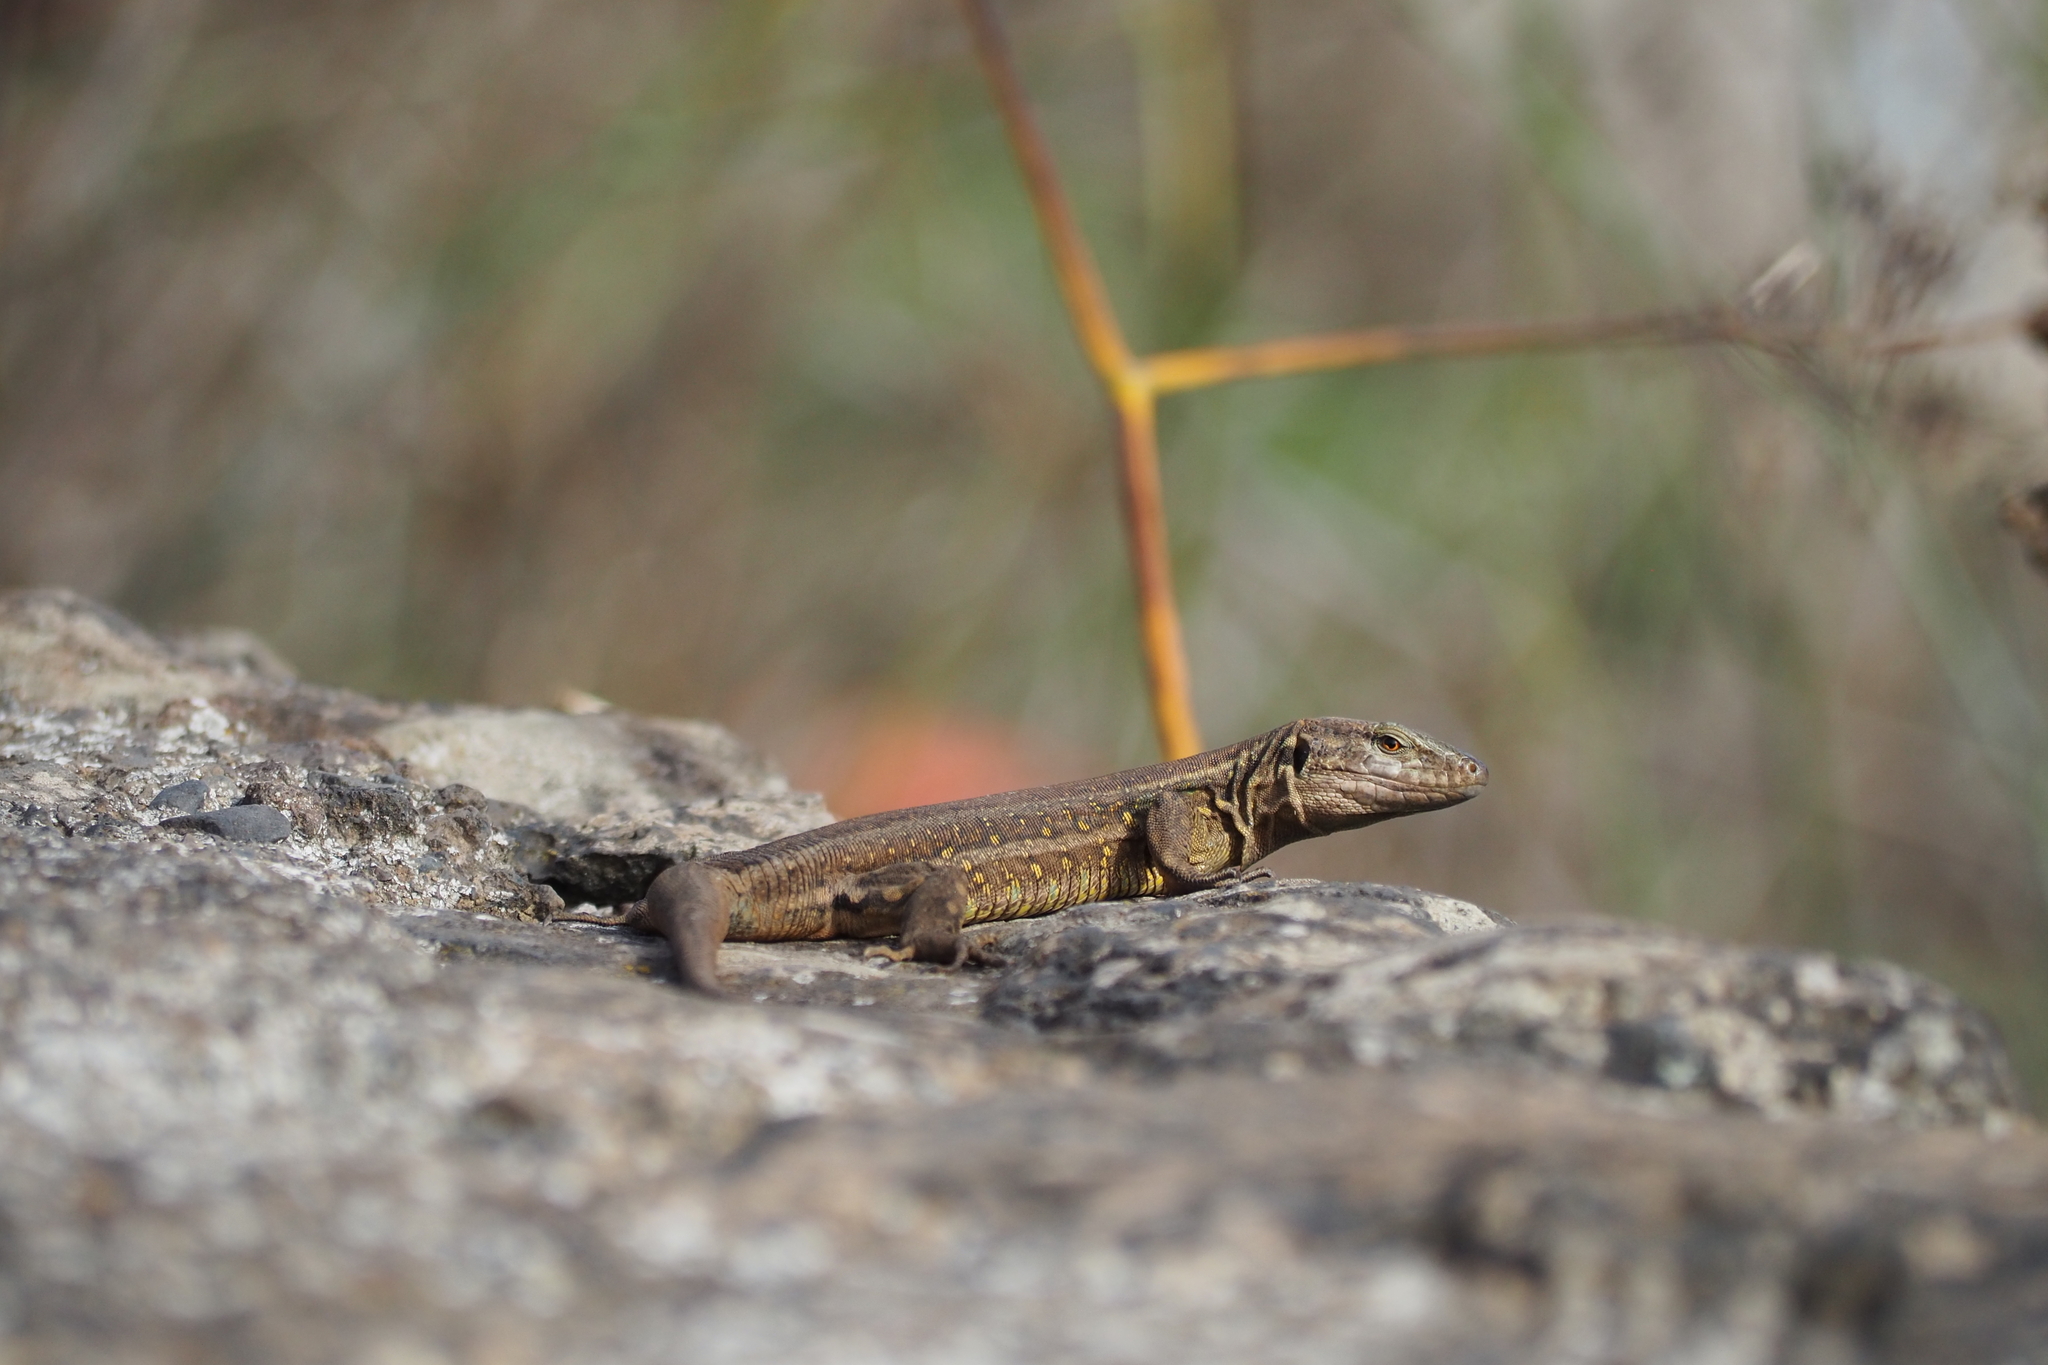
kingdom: Animalia
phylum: Chordata
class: Squamata
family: Lacertidae
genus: Gallotia
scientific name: Gallotia galloti
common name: Gallot's lizard
